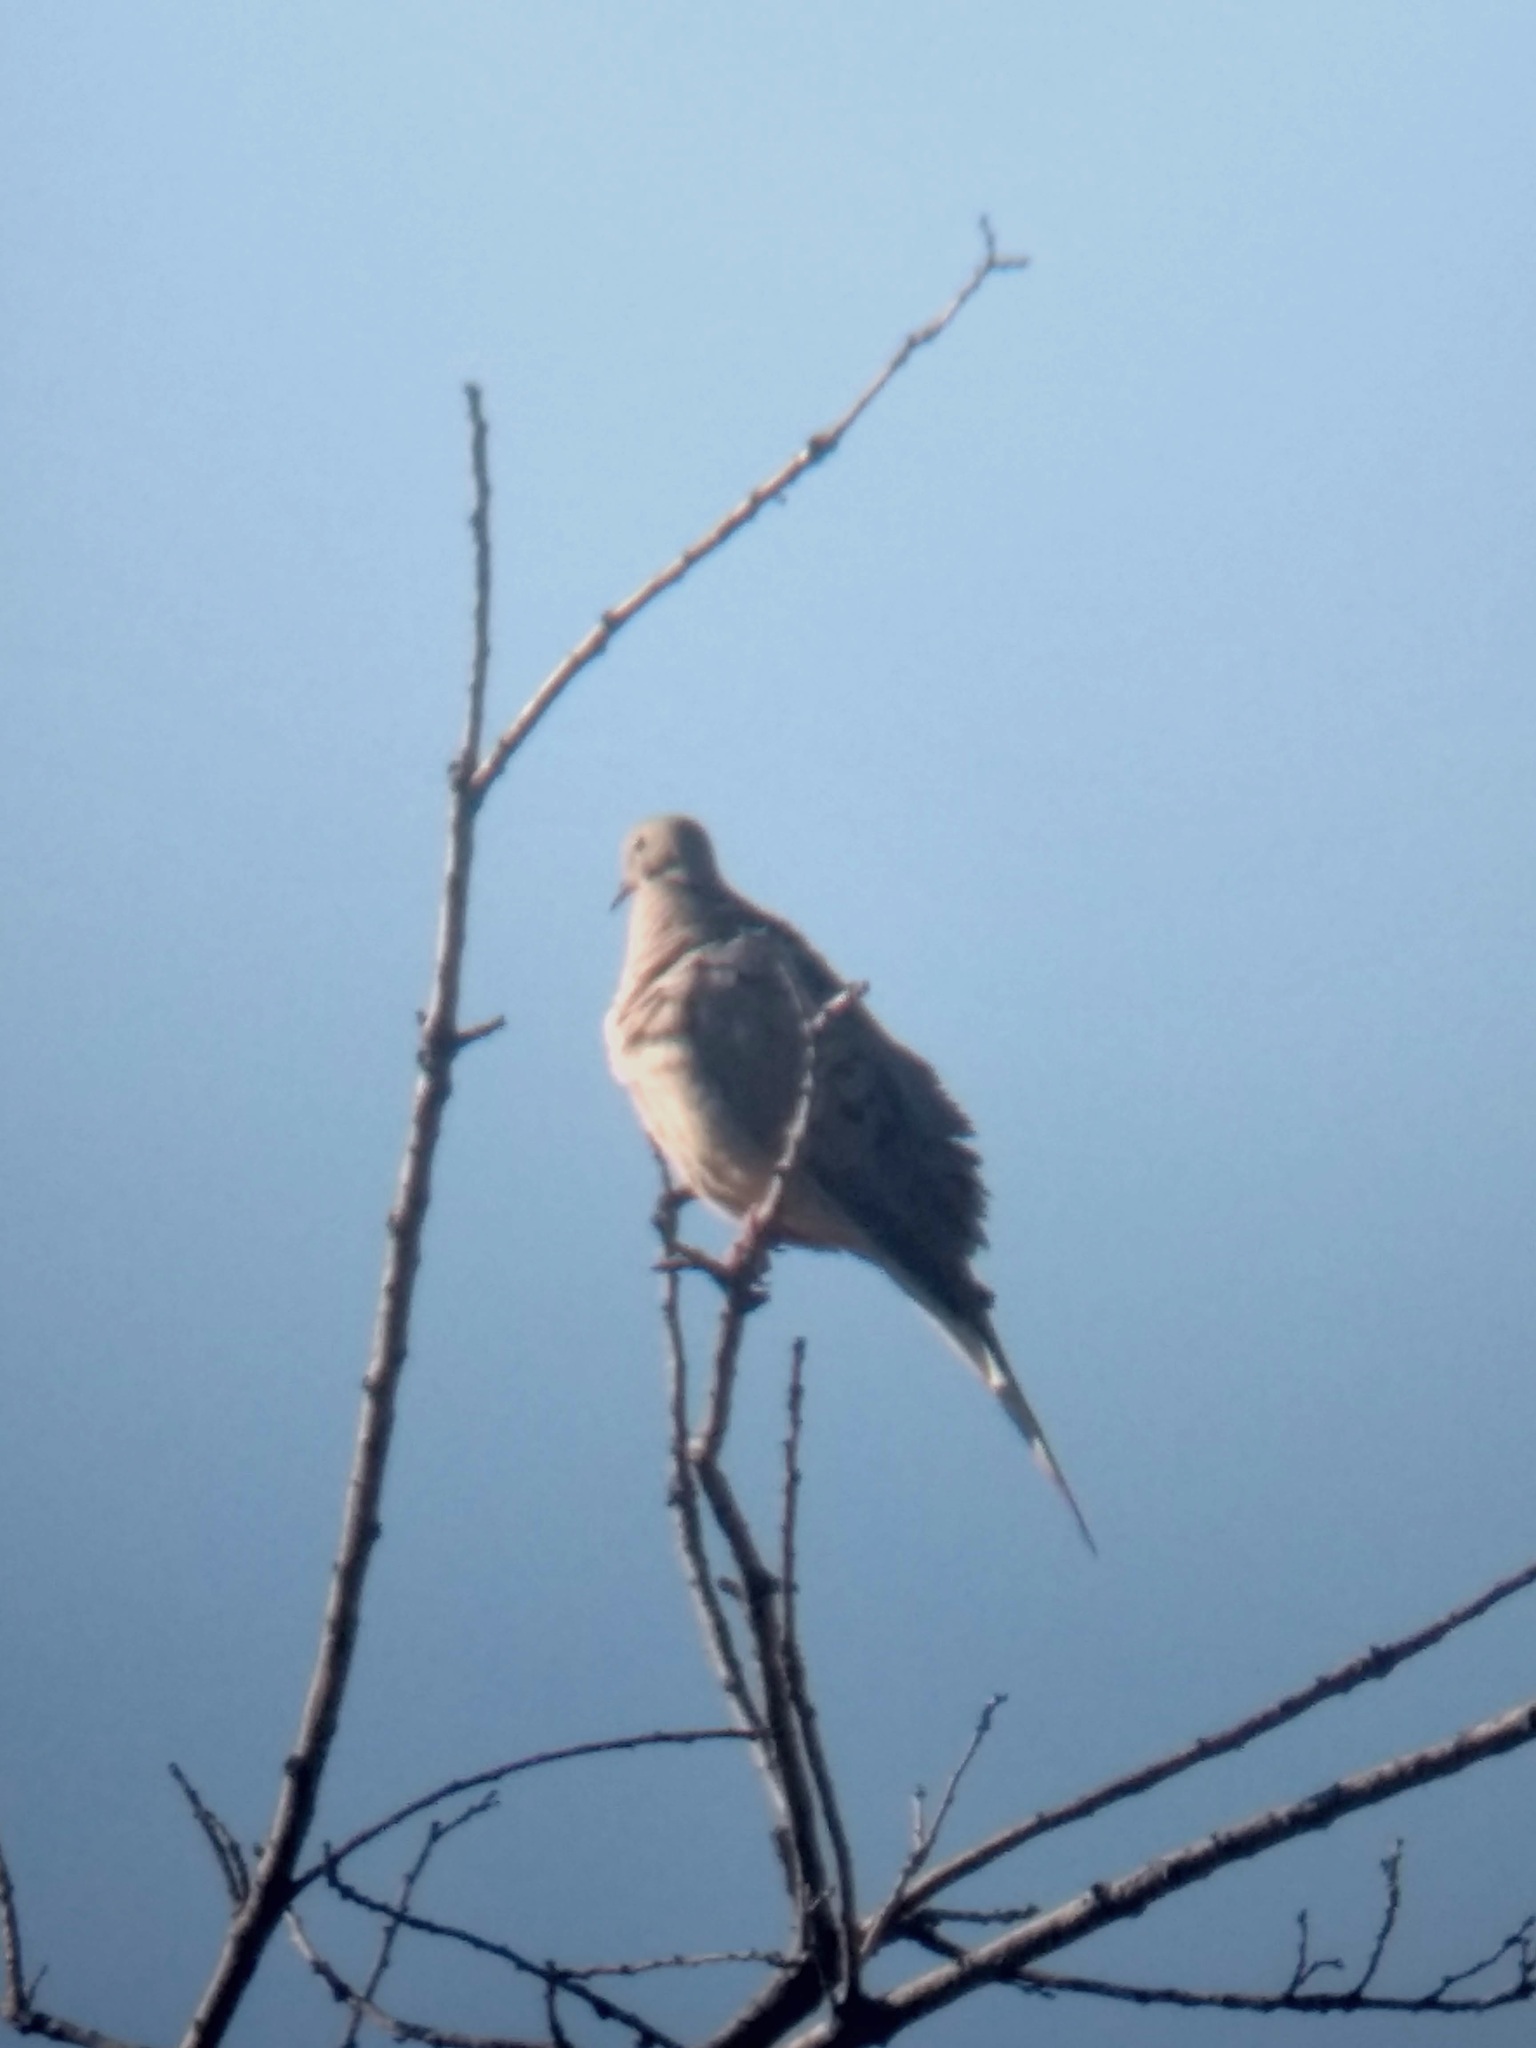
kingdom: Animalia
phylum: Chordata
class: Aves
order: Columbiformes
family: Columbidae
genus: Zenaida
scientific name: Zenaida macroura
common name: Mourning dove
